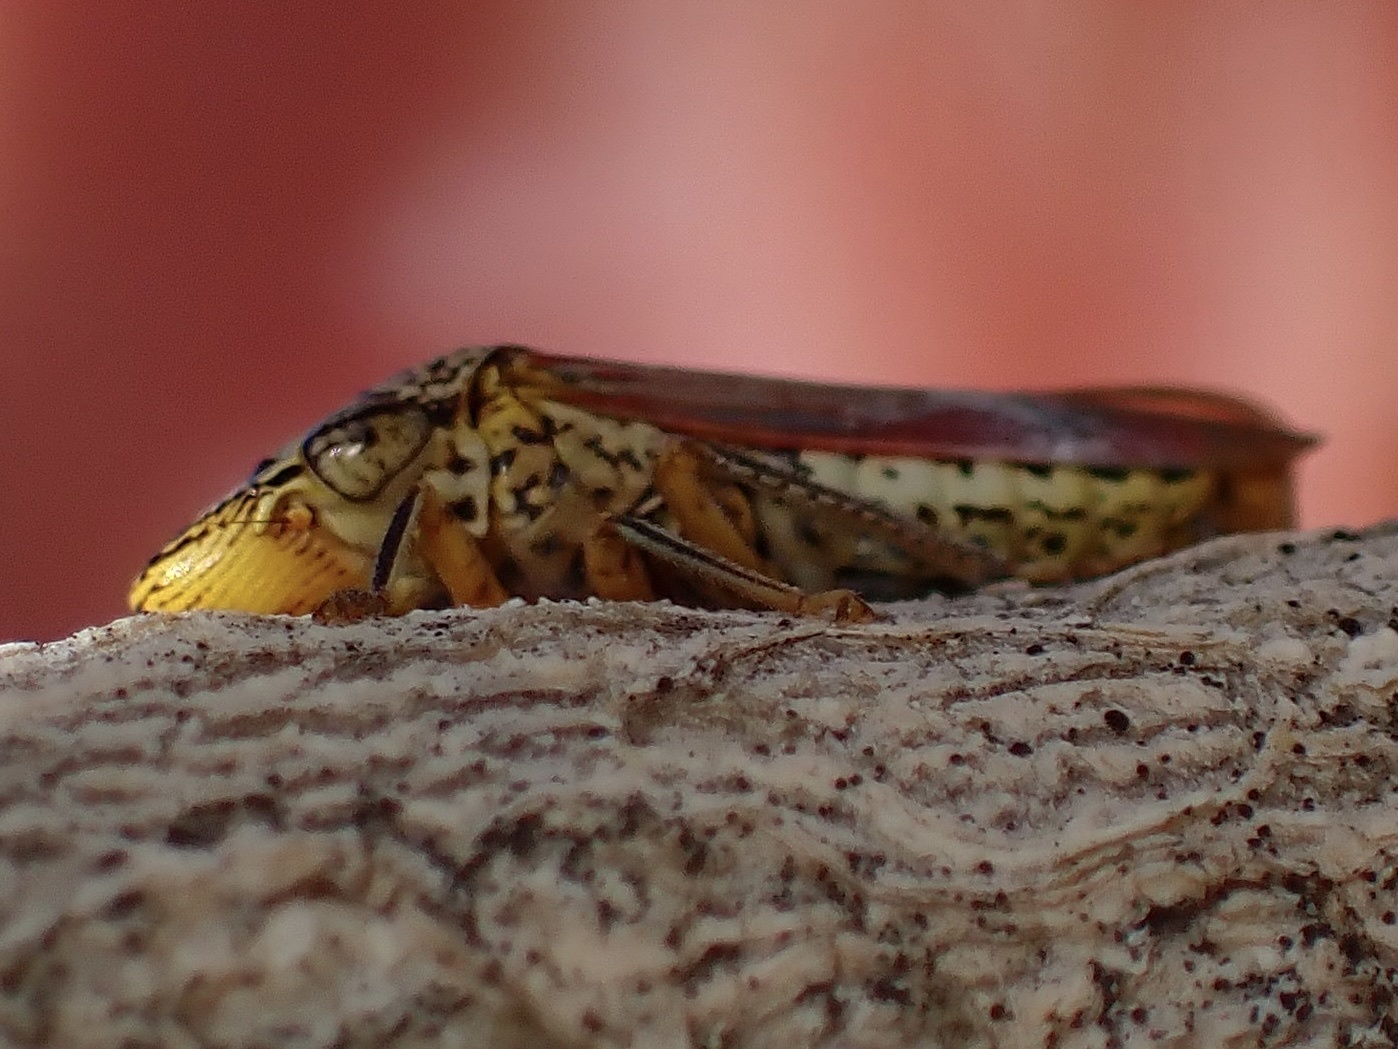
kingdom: Animalia
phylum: Arthropoda
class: Insecta
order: Hemiptera
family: Cicadellidae
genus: Homalodisca
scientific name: Homalodisca liturata
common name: Lacertate sharpshooter
